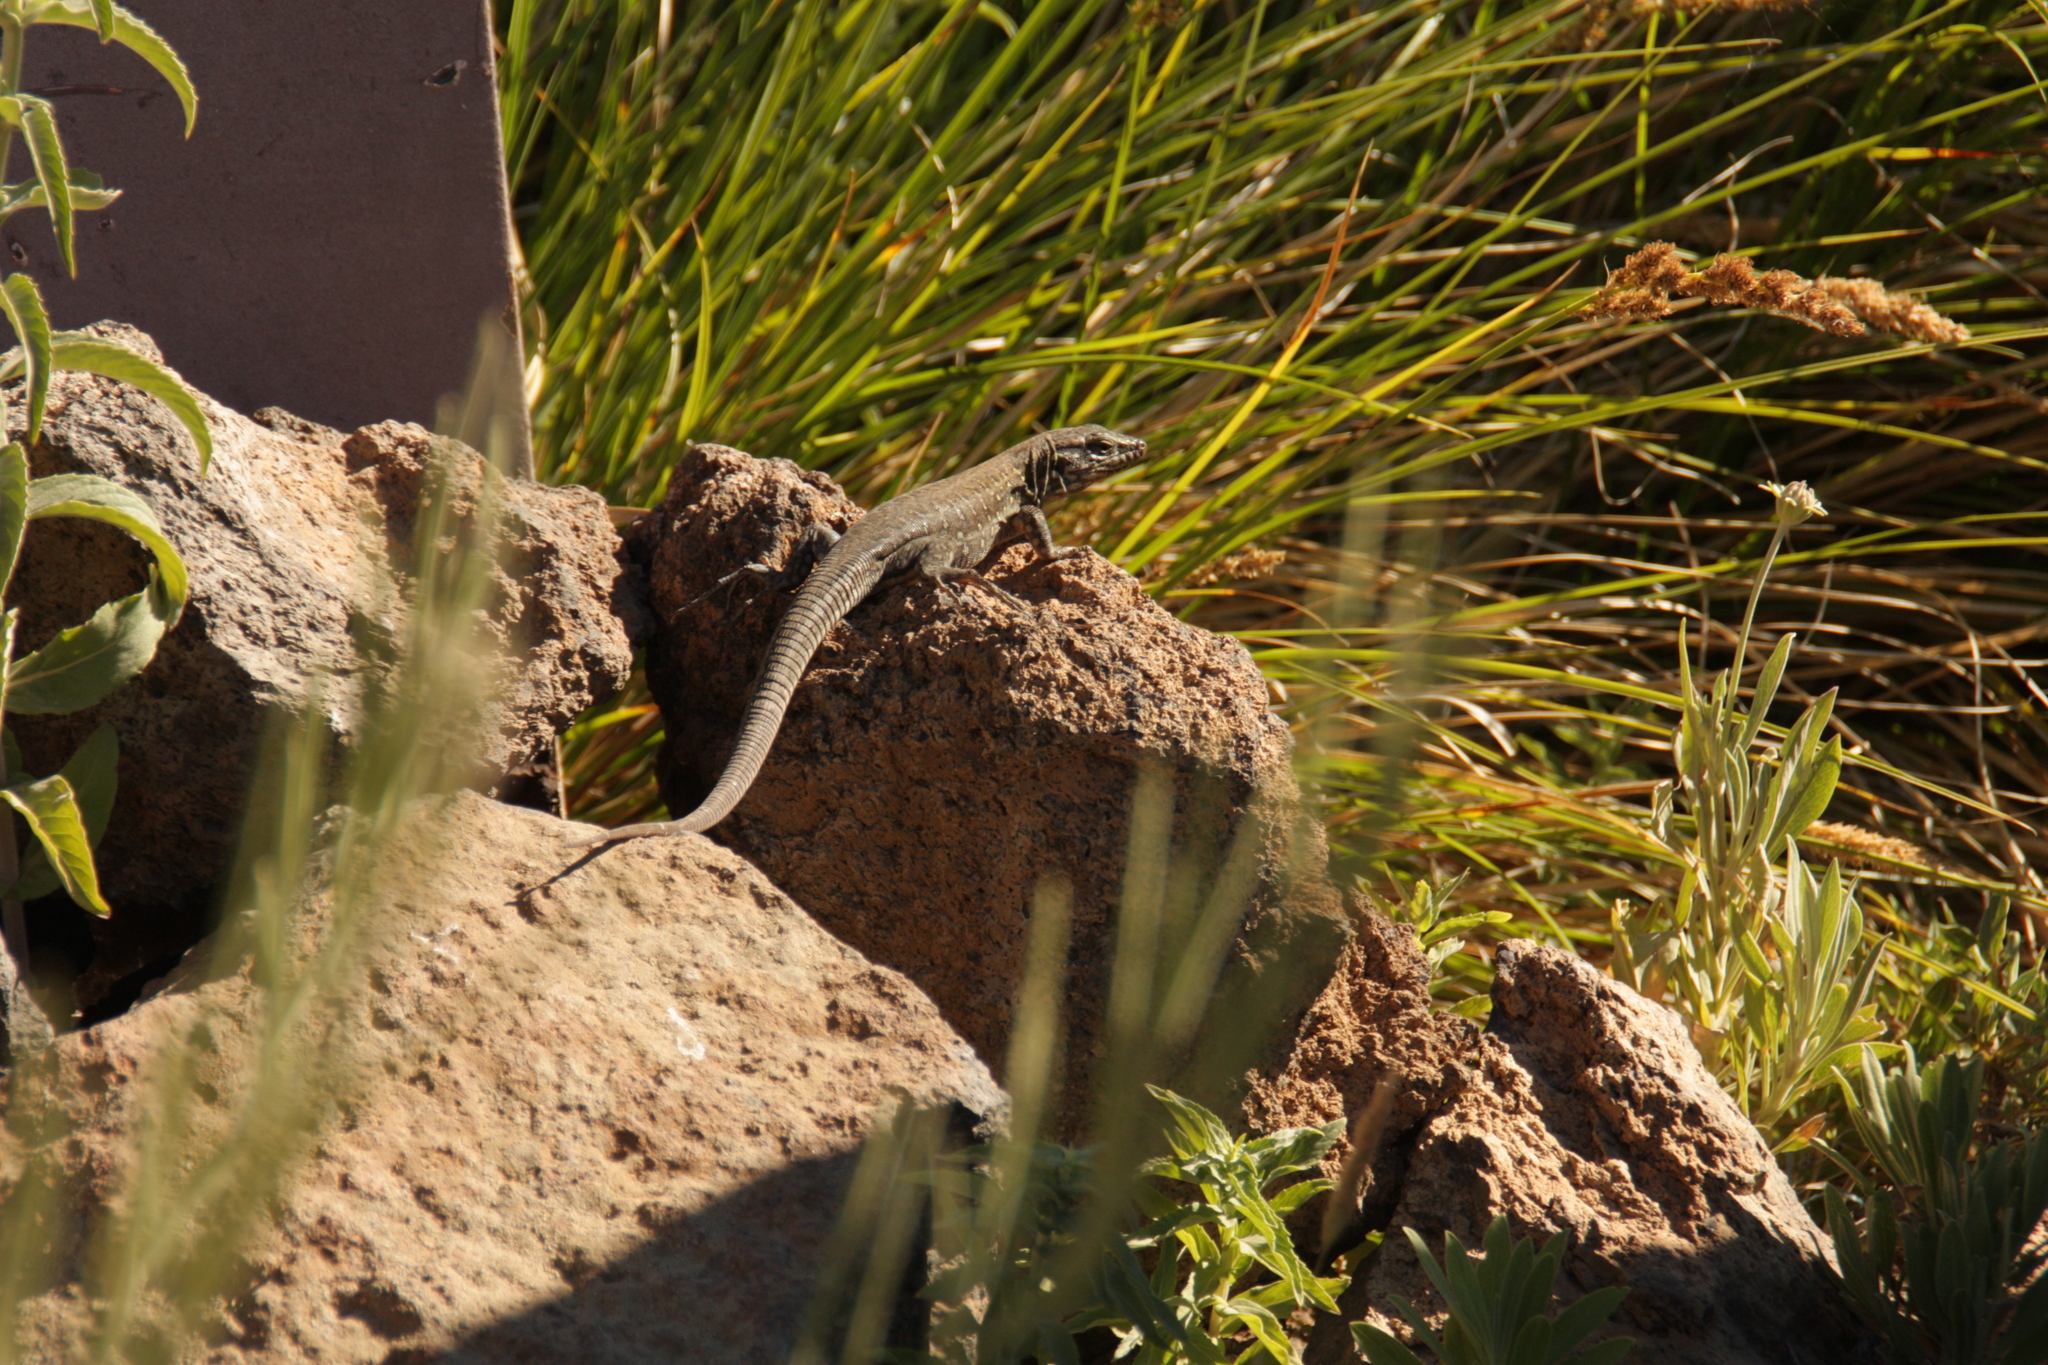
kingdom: Animalia
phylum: Chordata
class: Squamata
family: Lacertidae
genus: Gallotia
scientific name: Gallotia galloti
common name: Gallot's lizard
